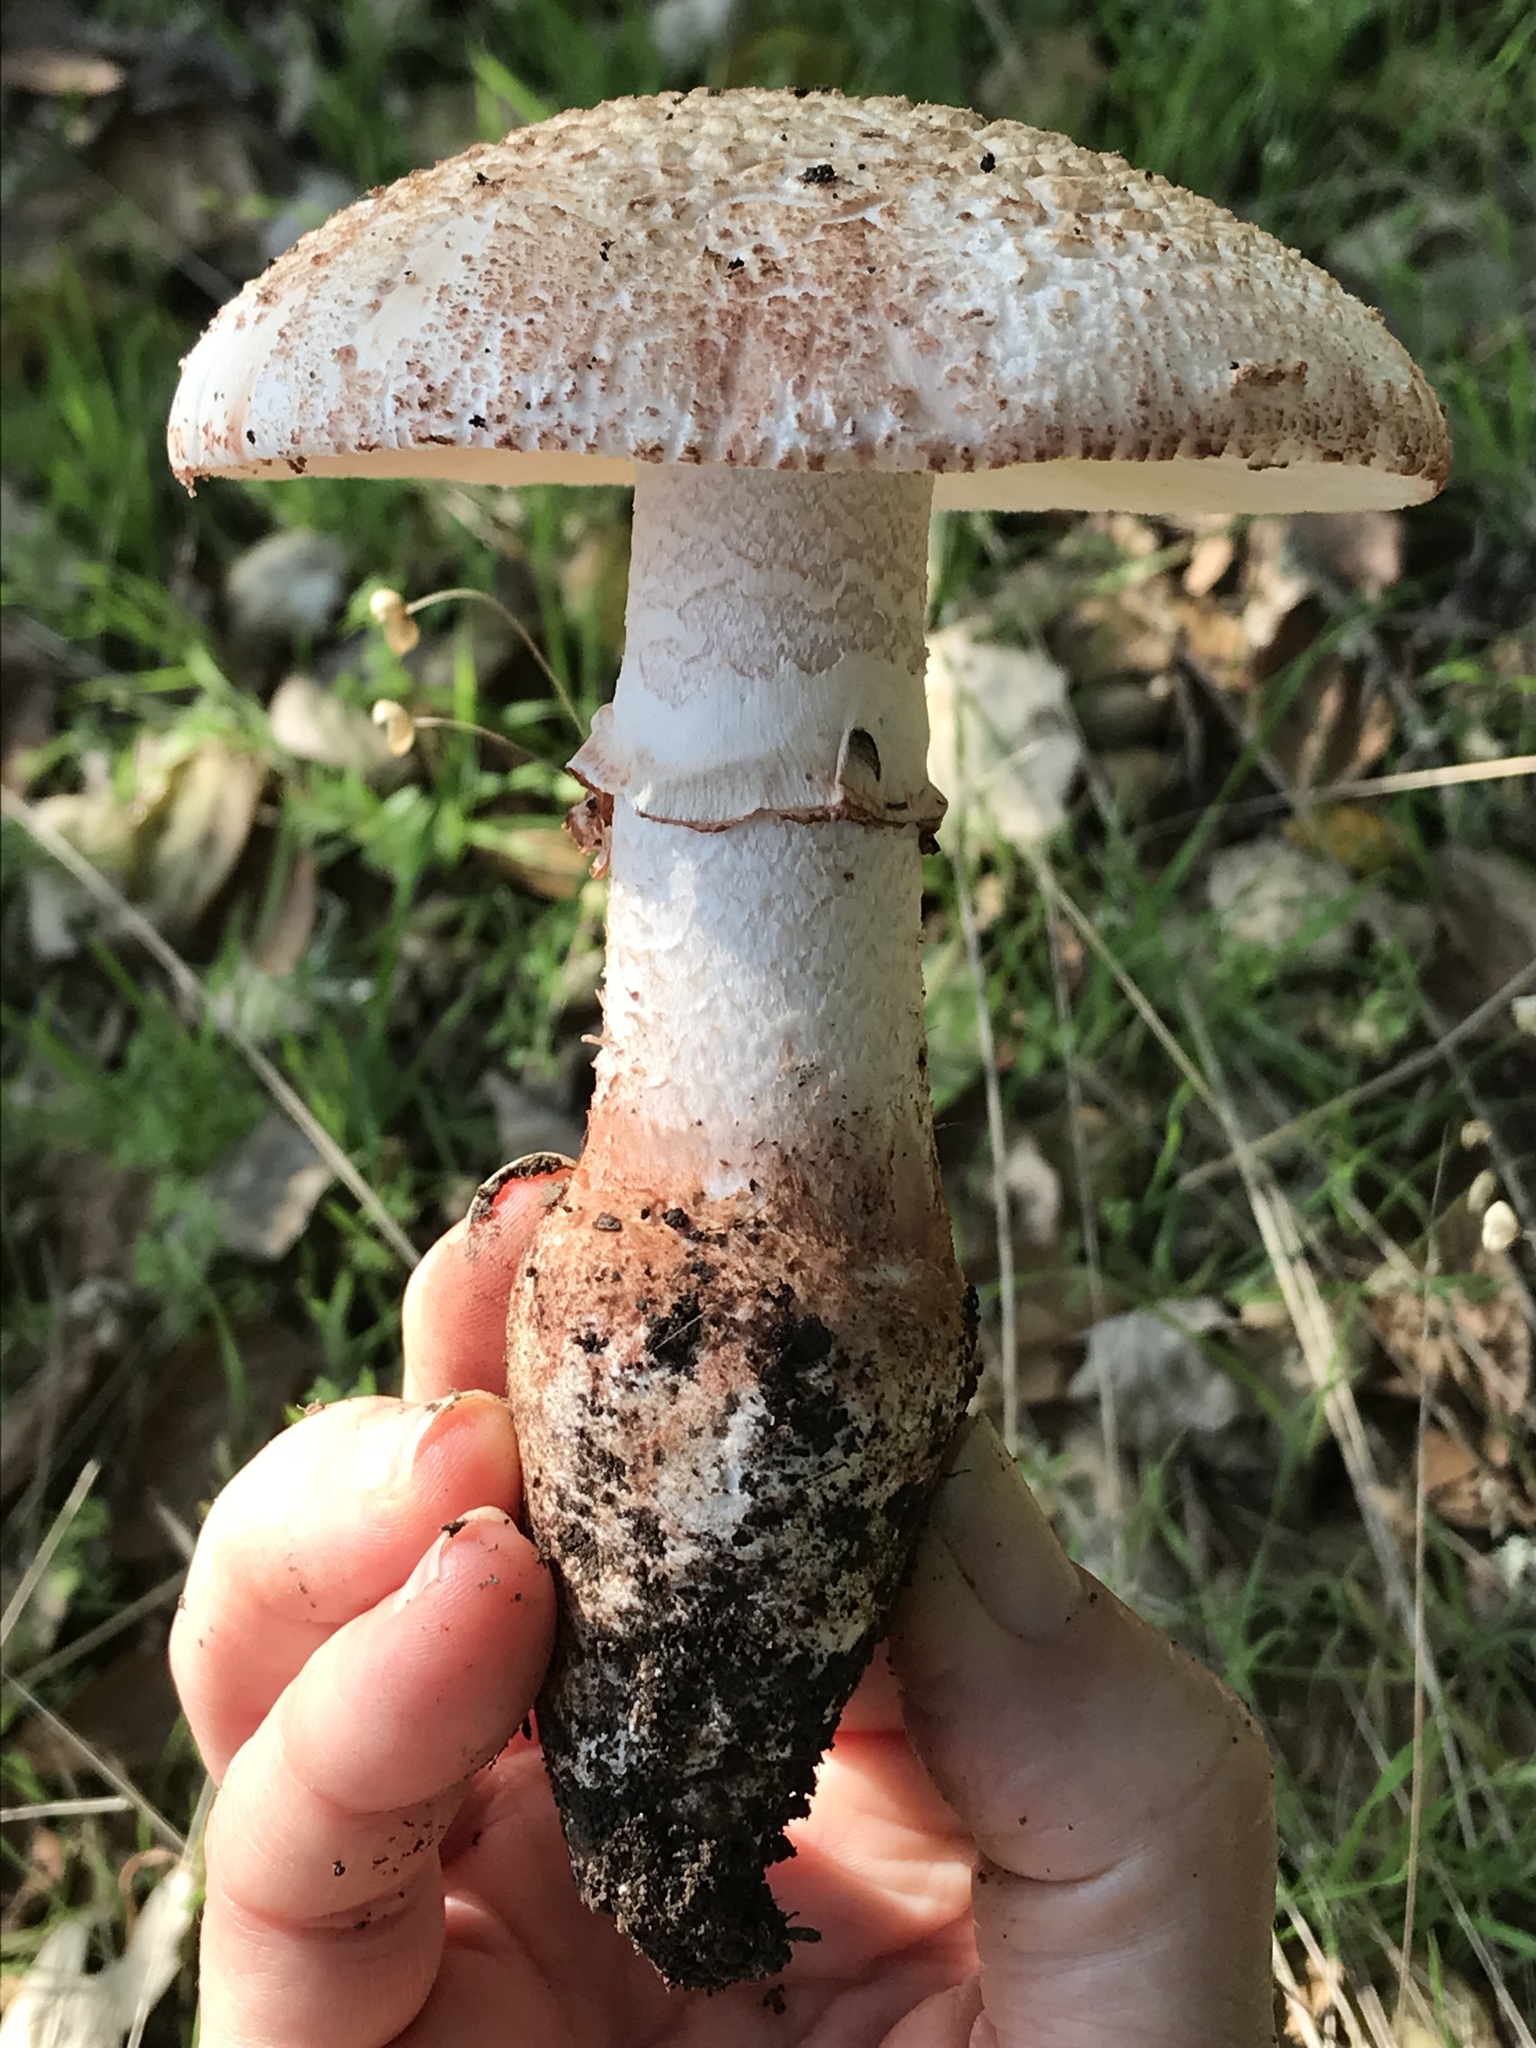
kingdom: Fungi
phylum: Basidiomycota
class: Agaricomycetes
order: Agaricales
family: Amanitaceae
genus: Amanita
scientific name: Amanita novinupta
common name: Blushing bride
